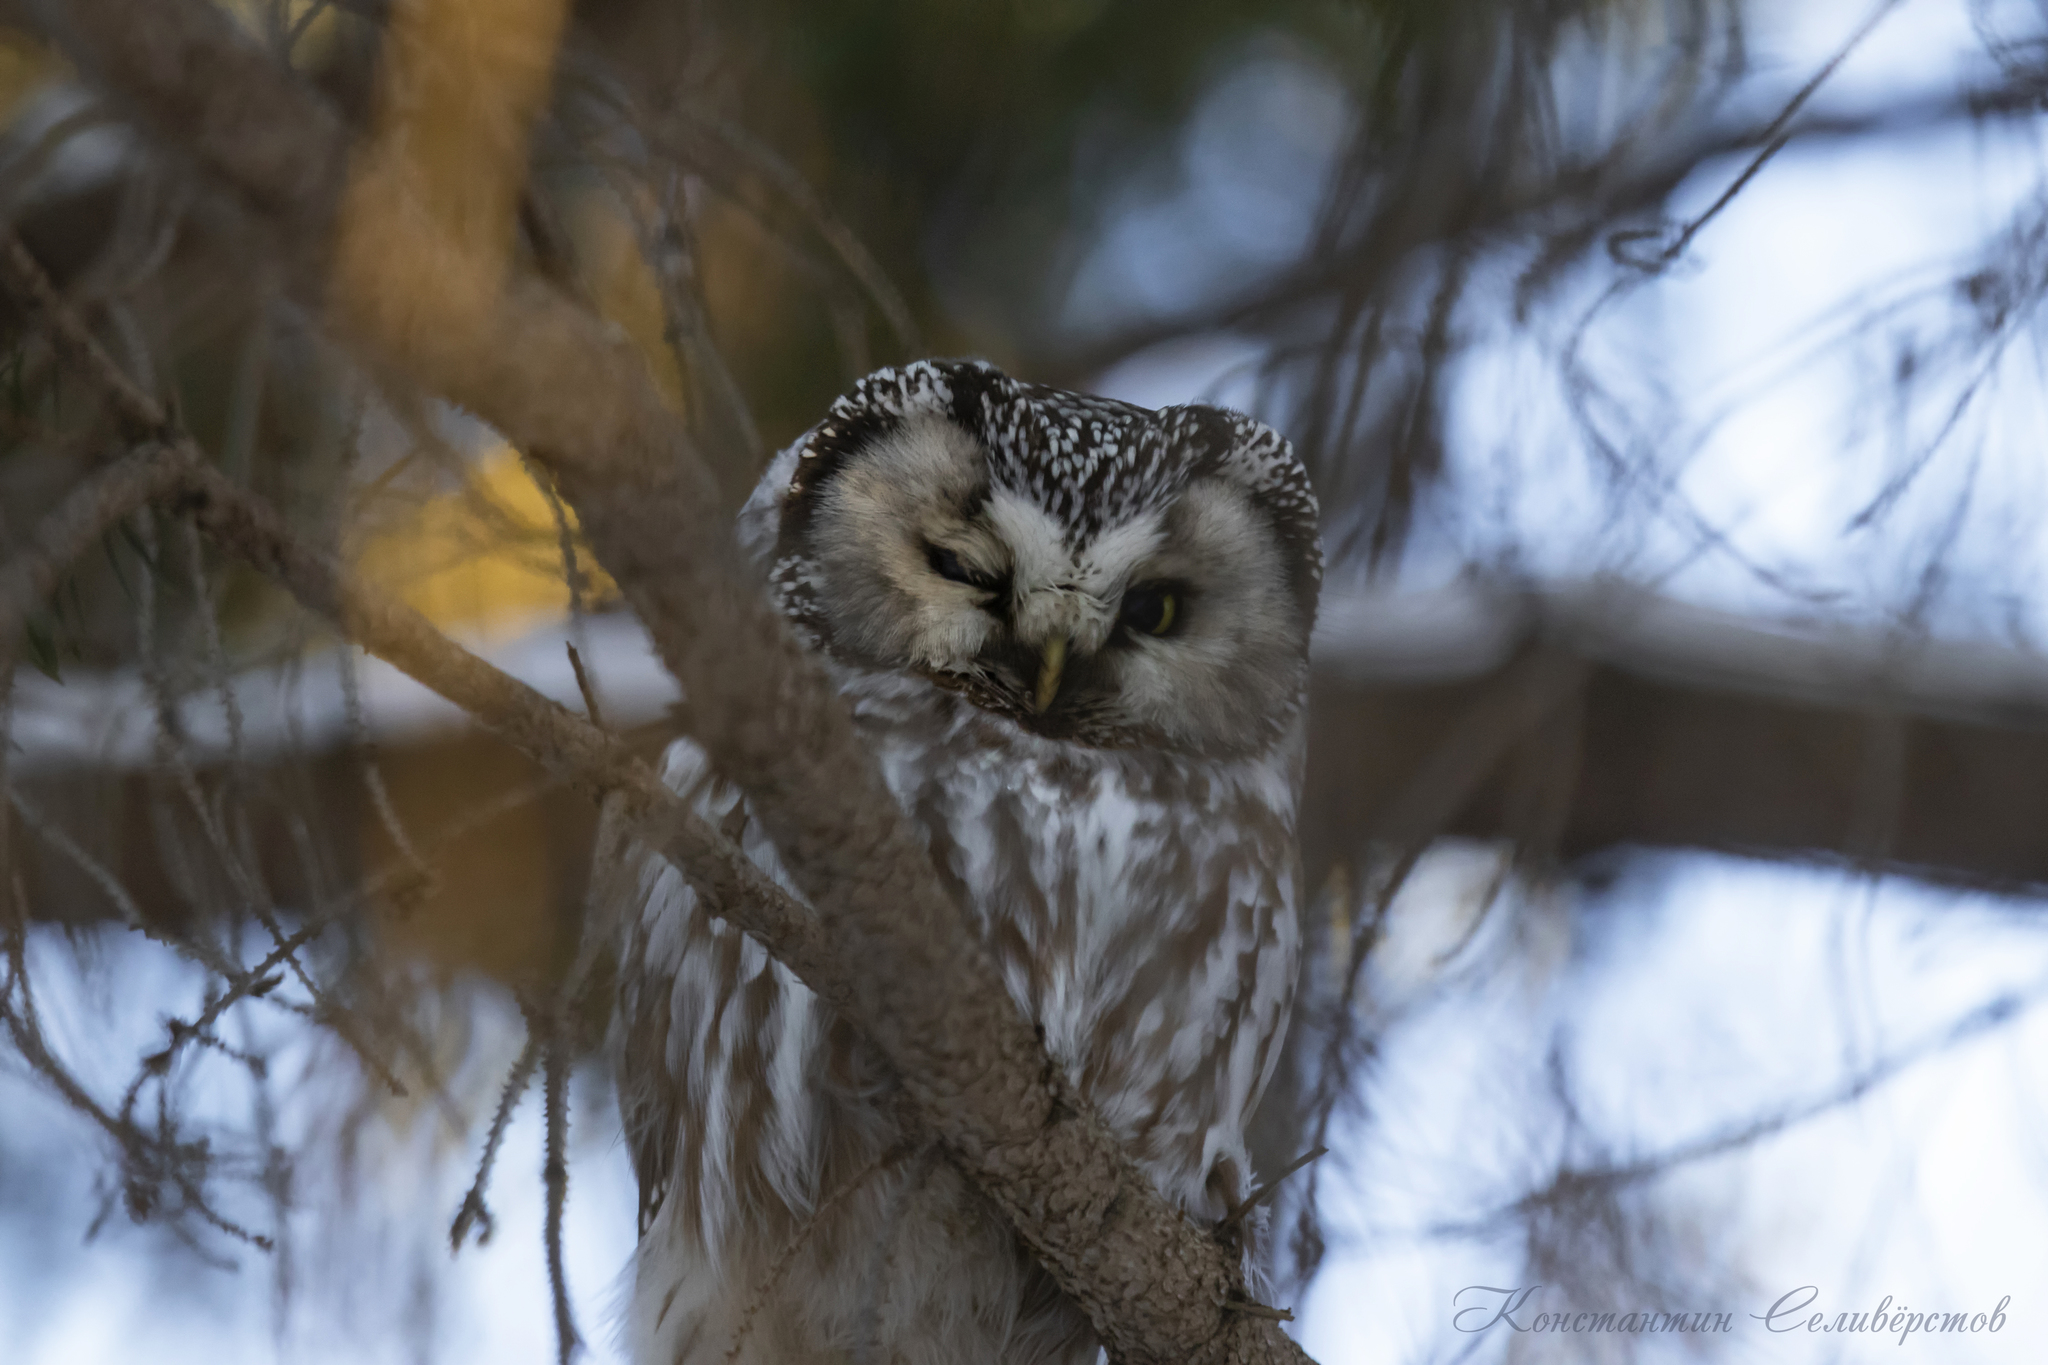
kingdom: Animalia
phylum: Chordata
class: Aves
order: Strigiformes
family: Strigidae
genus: Aegolius
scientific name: Aegolius funereus
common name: Boreal owl
